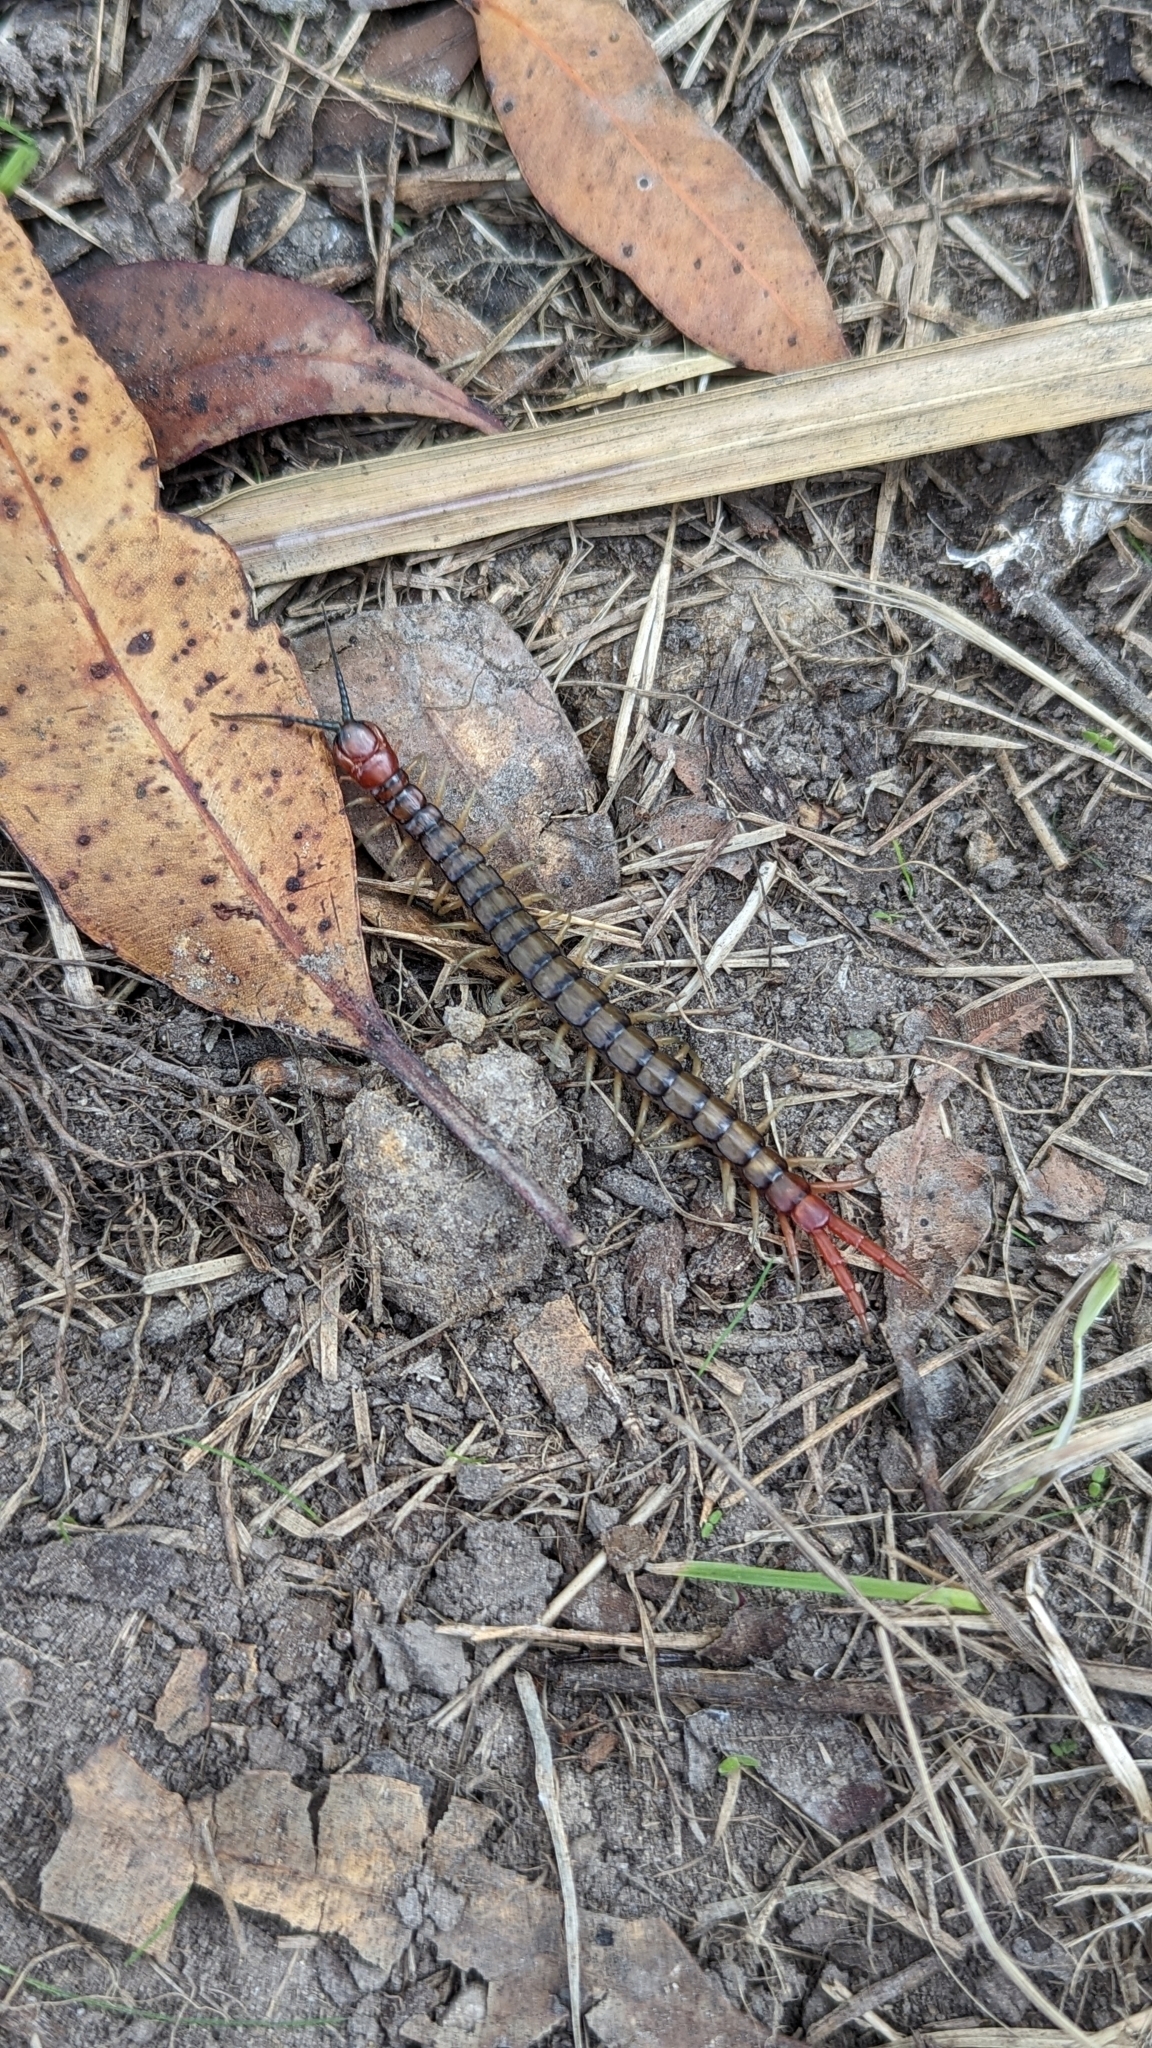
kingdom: Animalia
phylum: Arthropoda
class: Chilopoda
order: Scolopendromorpha
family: Scolopendridae
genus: Cormocephalus
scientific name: Cormocephalus aurantiipes
